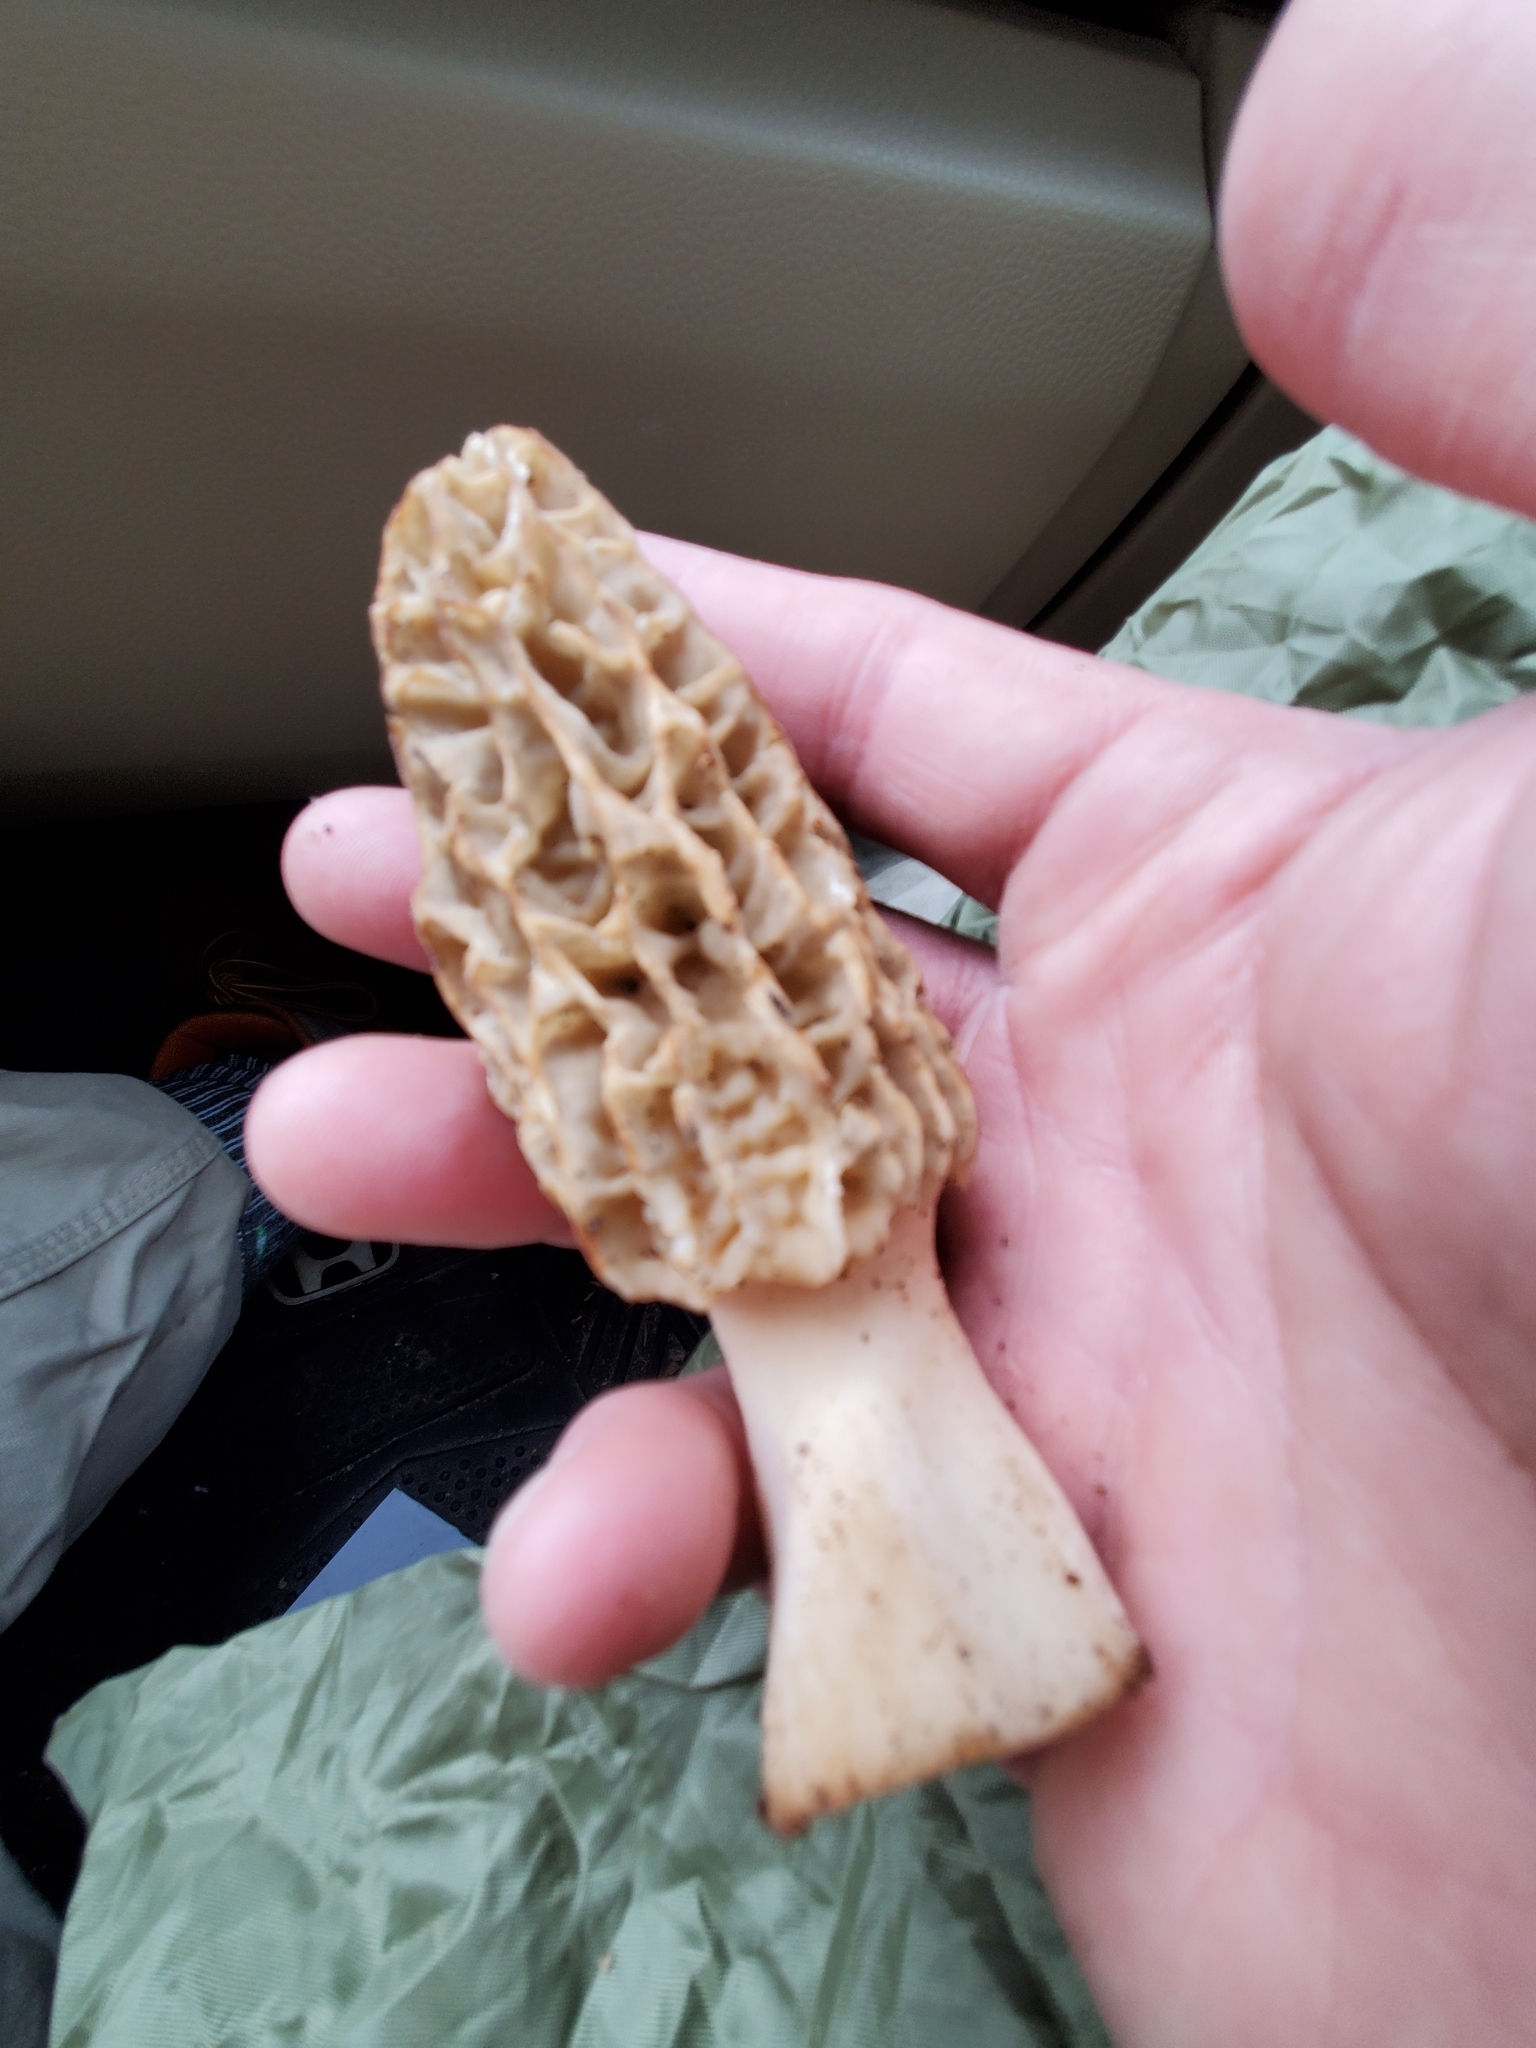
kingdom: Fungi
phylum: Ascomycota
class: Pezizomycetes
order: Pezizales
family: Morchellaceae
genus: Morchella
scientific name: Morchella americana
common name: White morel
